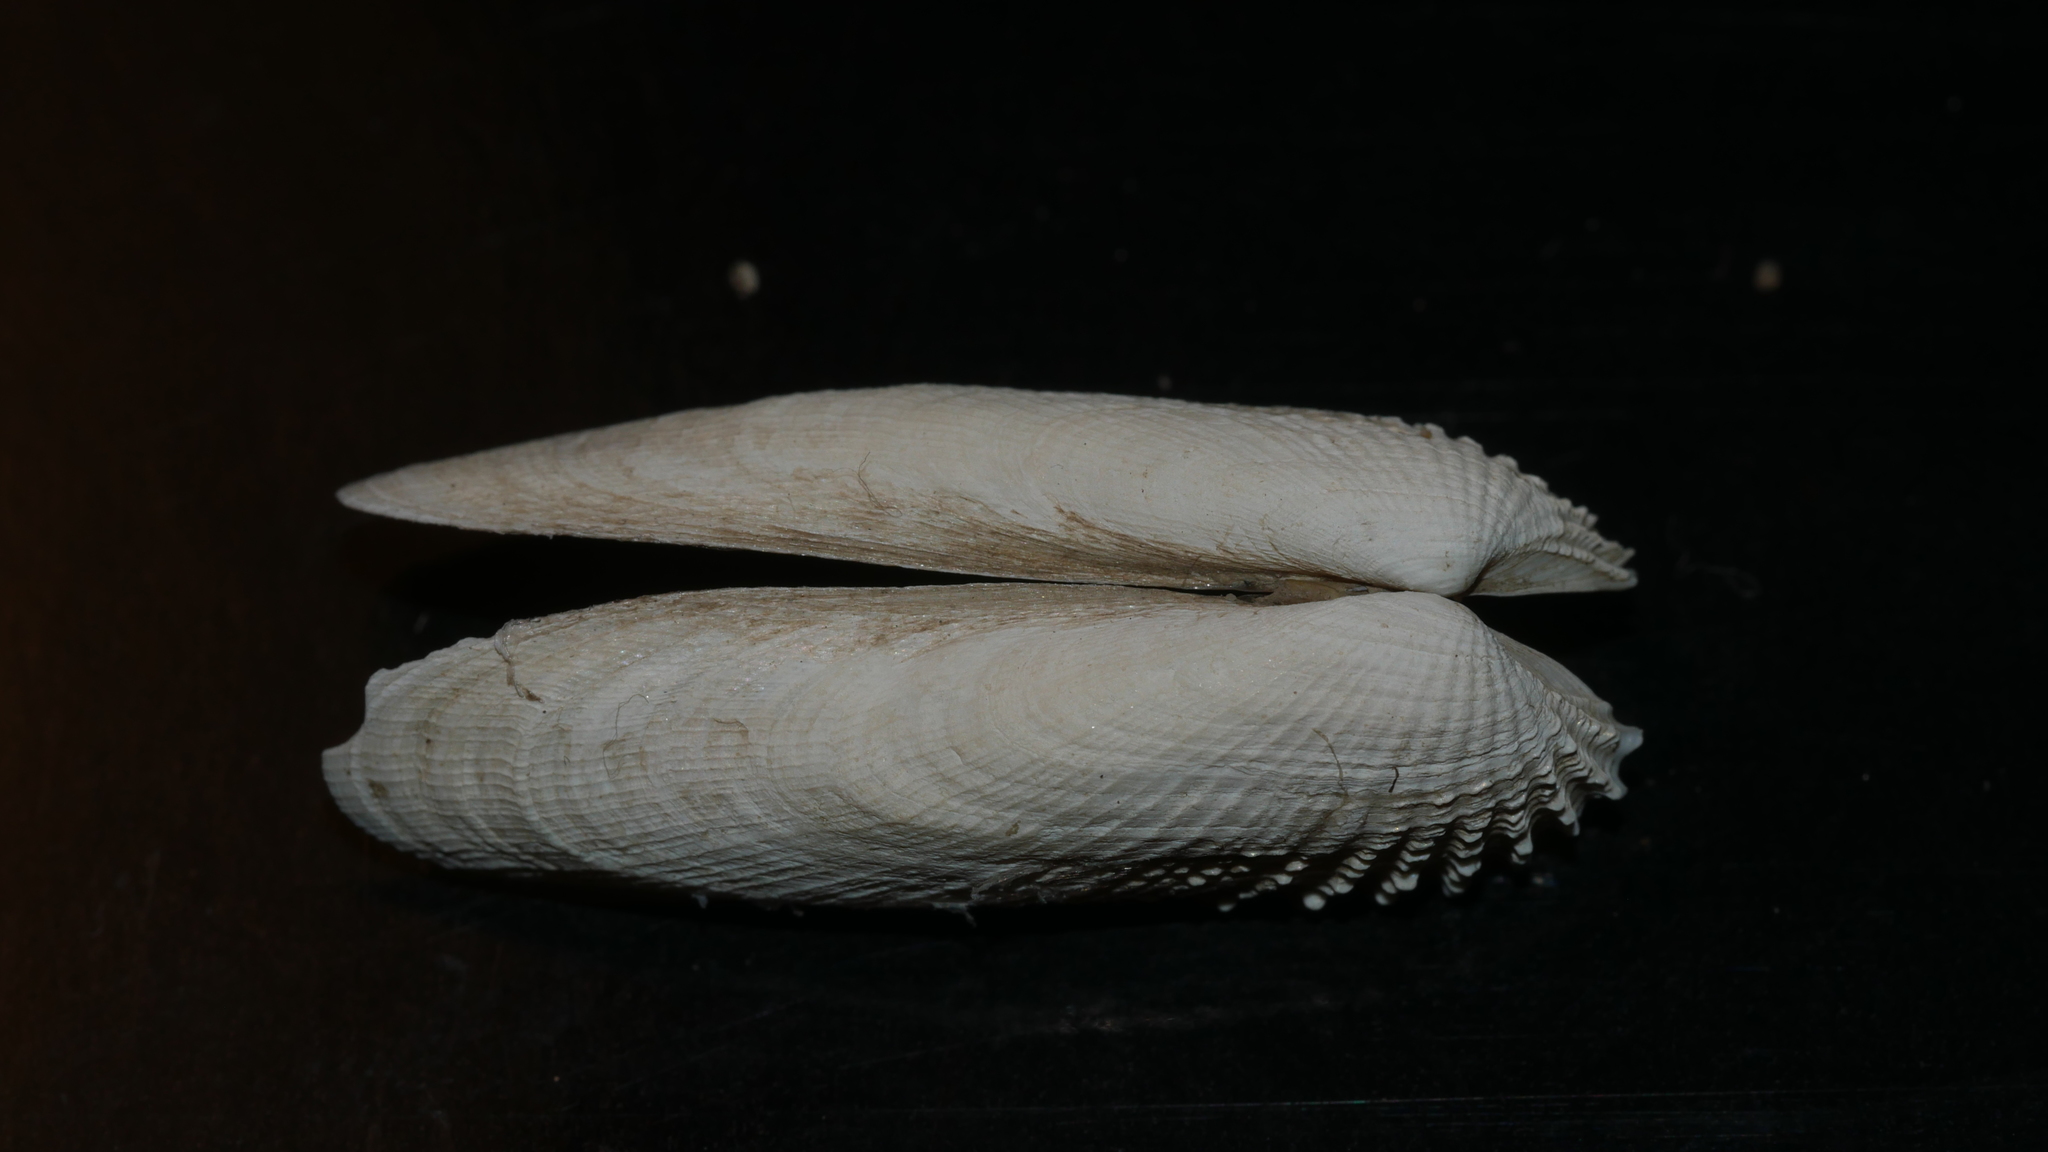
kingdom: Animalia
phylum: Mollusca
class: Bivalvia
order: Venerida
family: Veneridae
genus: Petricolaria
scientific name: Petricolaria pholadiformis
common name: American piddock
